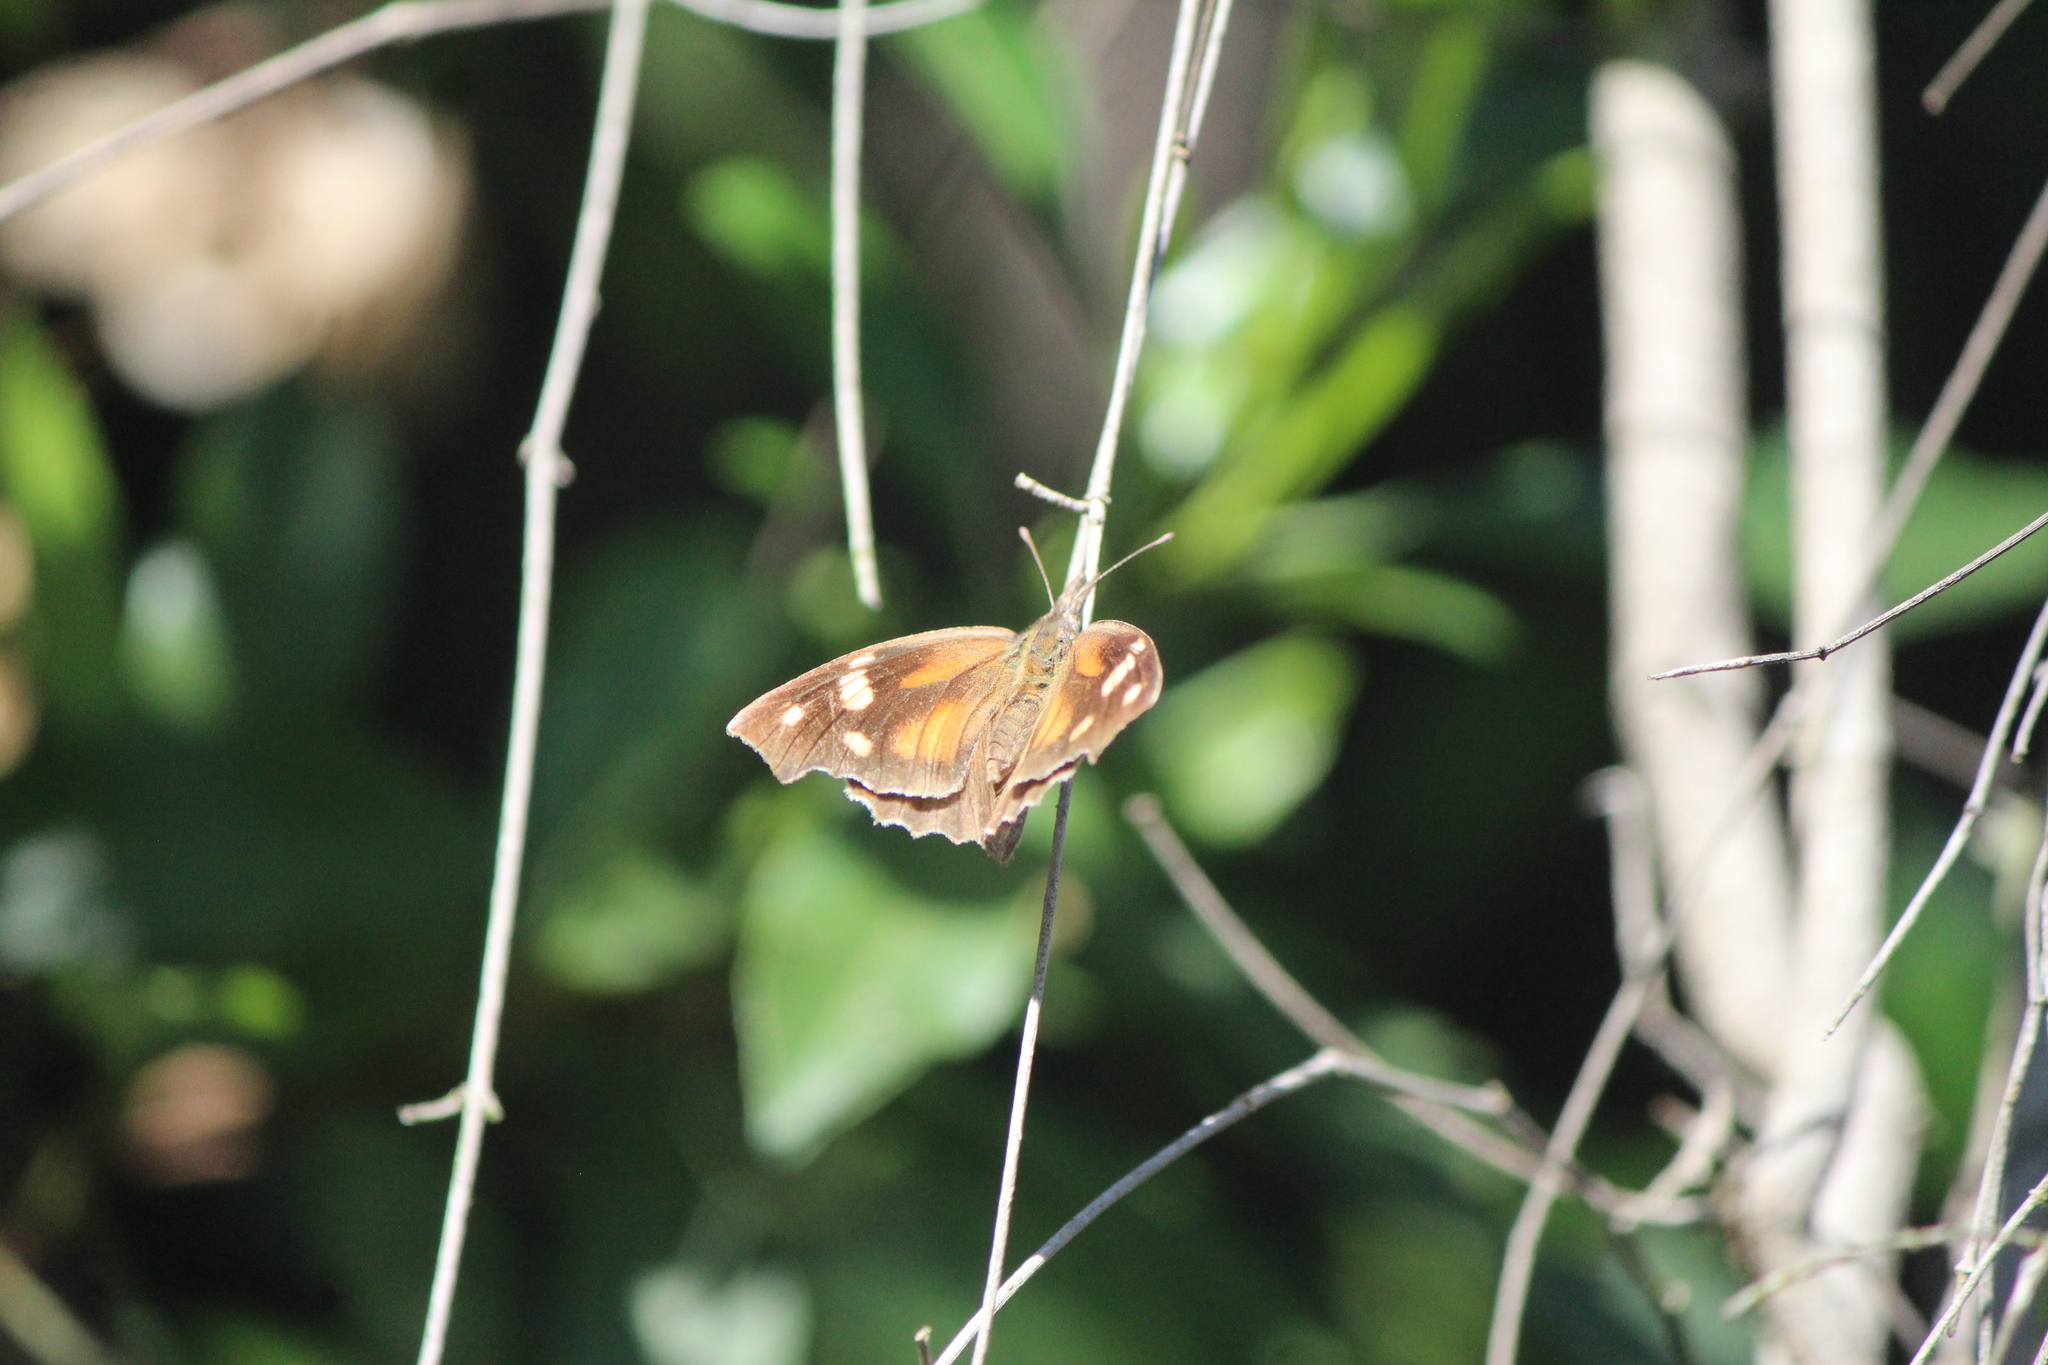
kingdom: Animalia
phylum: Arthropoda
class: Insecta
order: Lepidoptera
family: Nymphalidae
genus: Libytheana
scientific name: Libytheana carinenta
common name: American snout
